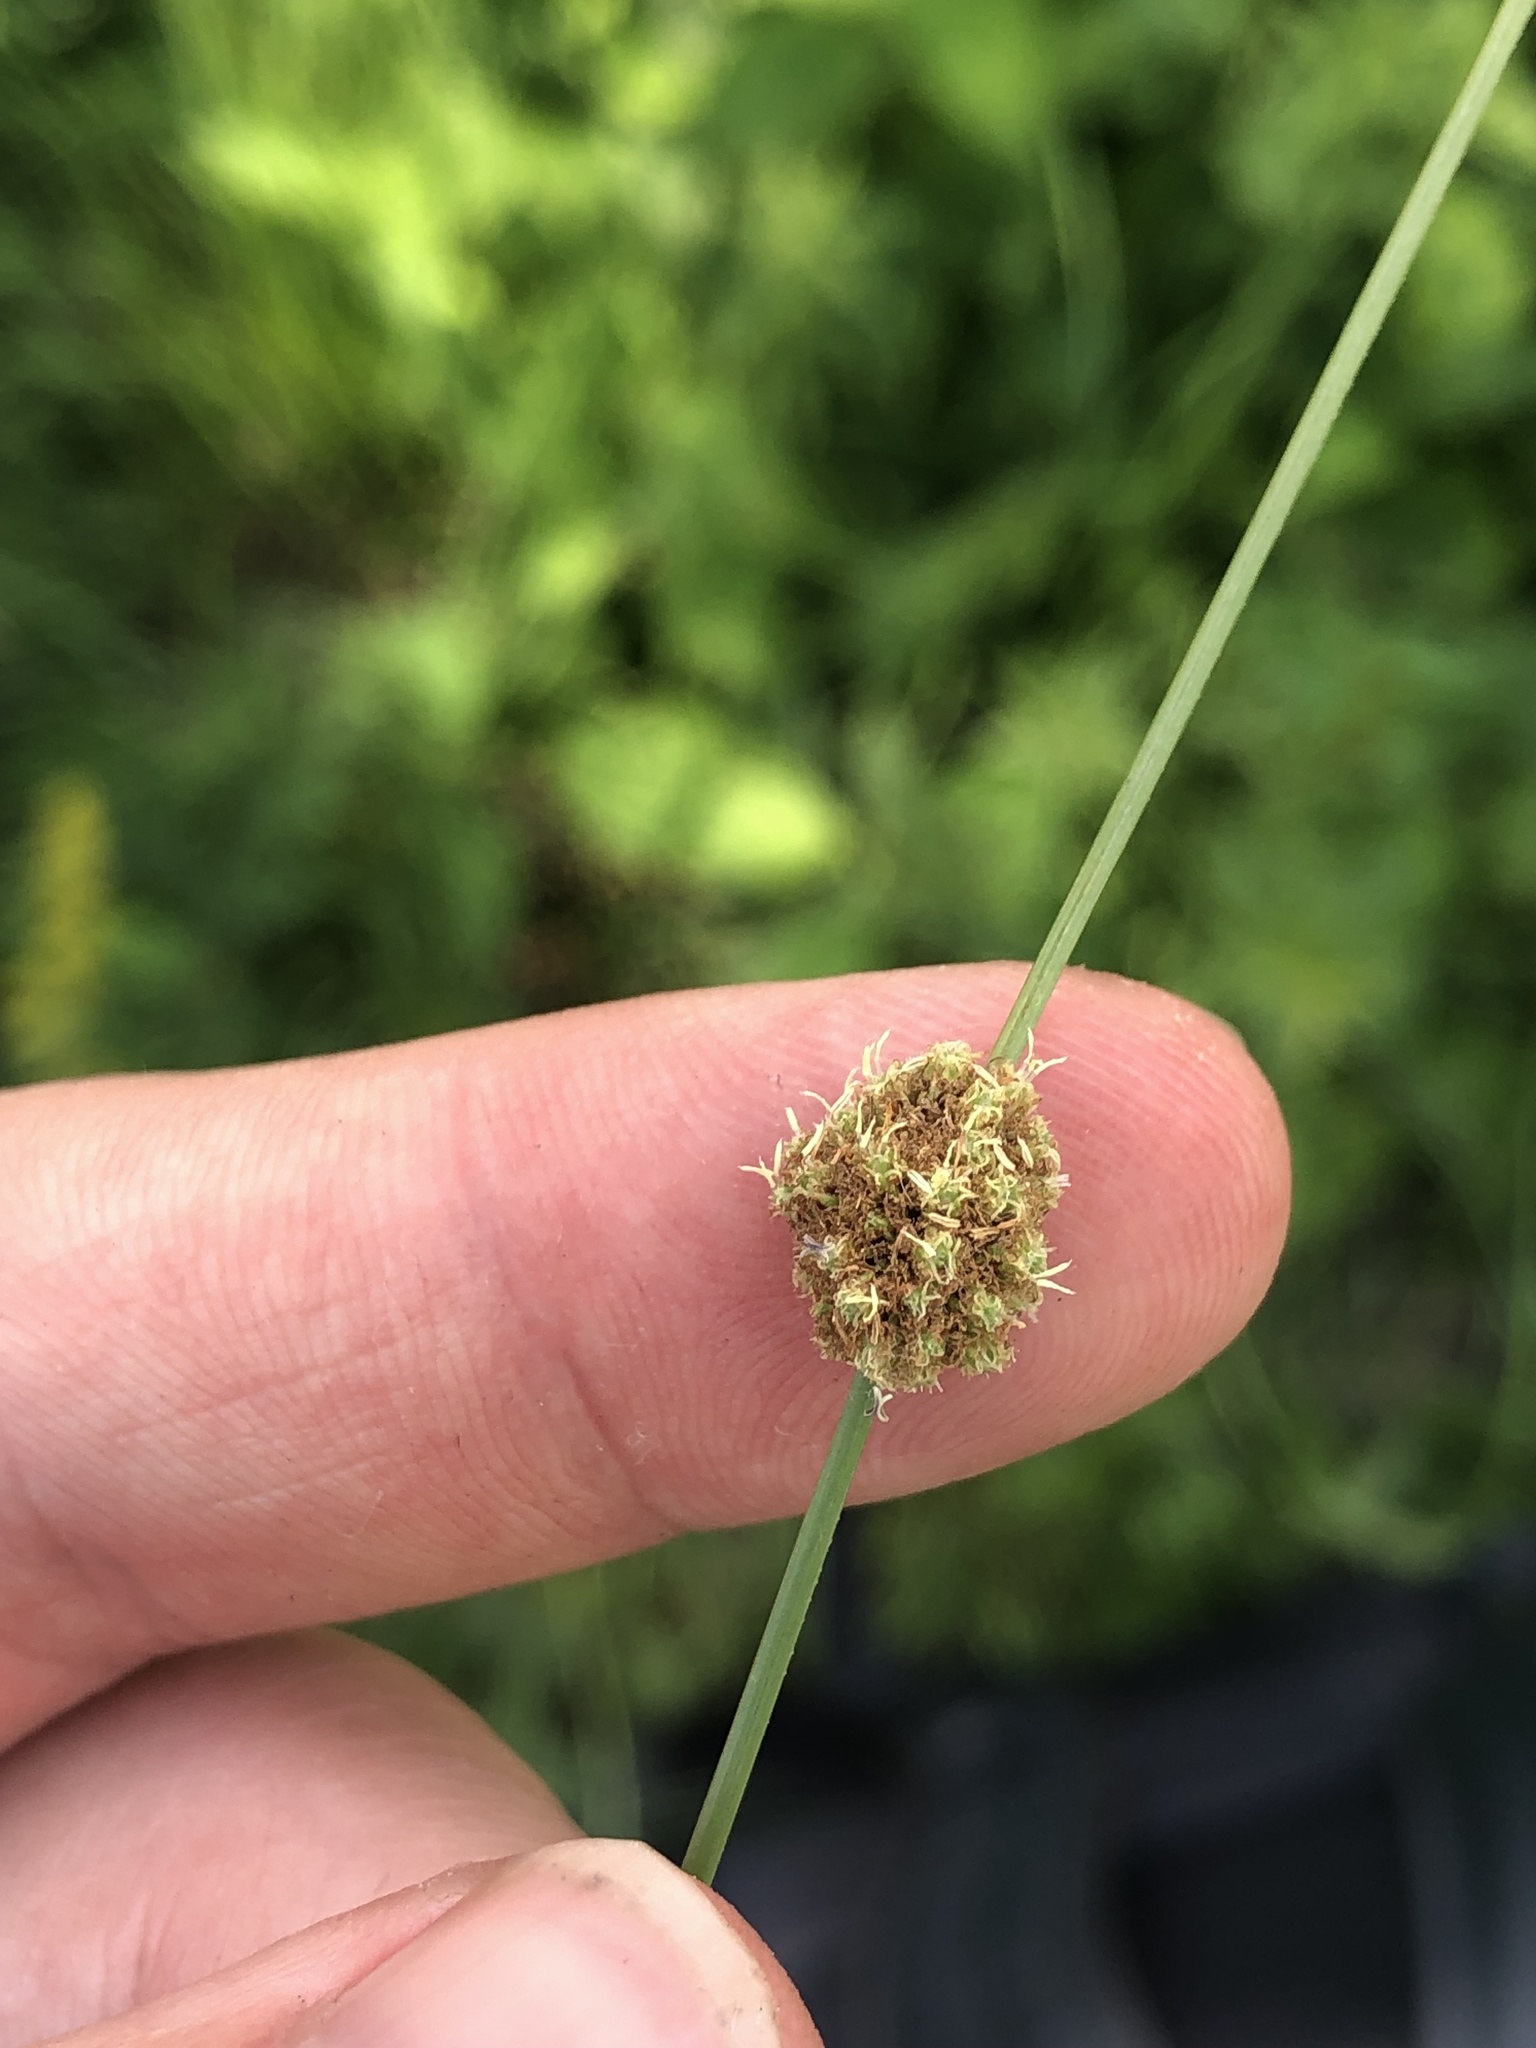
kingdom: Plantae
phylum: Tracheophyta
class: Liliopsida
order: Poales
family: Cyperaceae
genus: Scirpoides
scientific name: Scirpoides holoschoenus
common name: Round-headed club-rush
